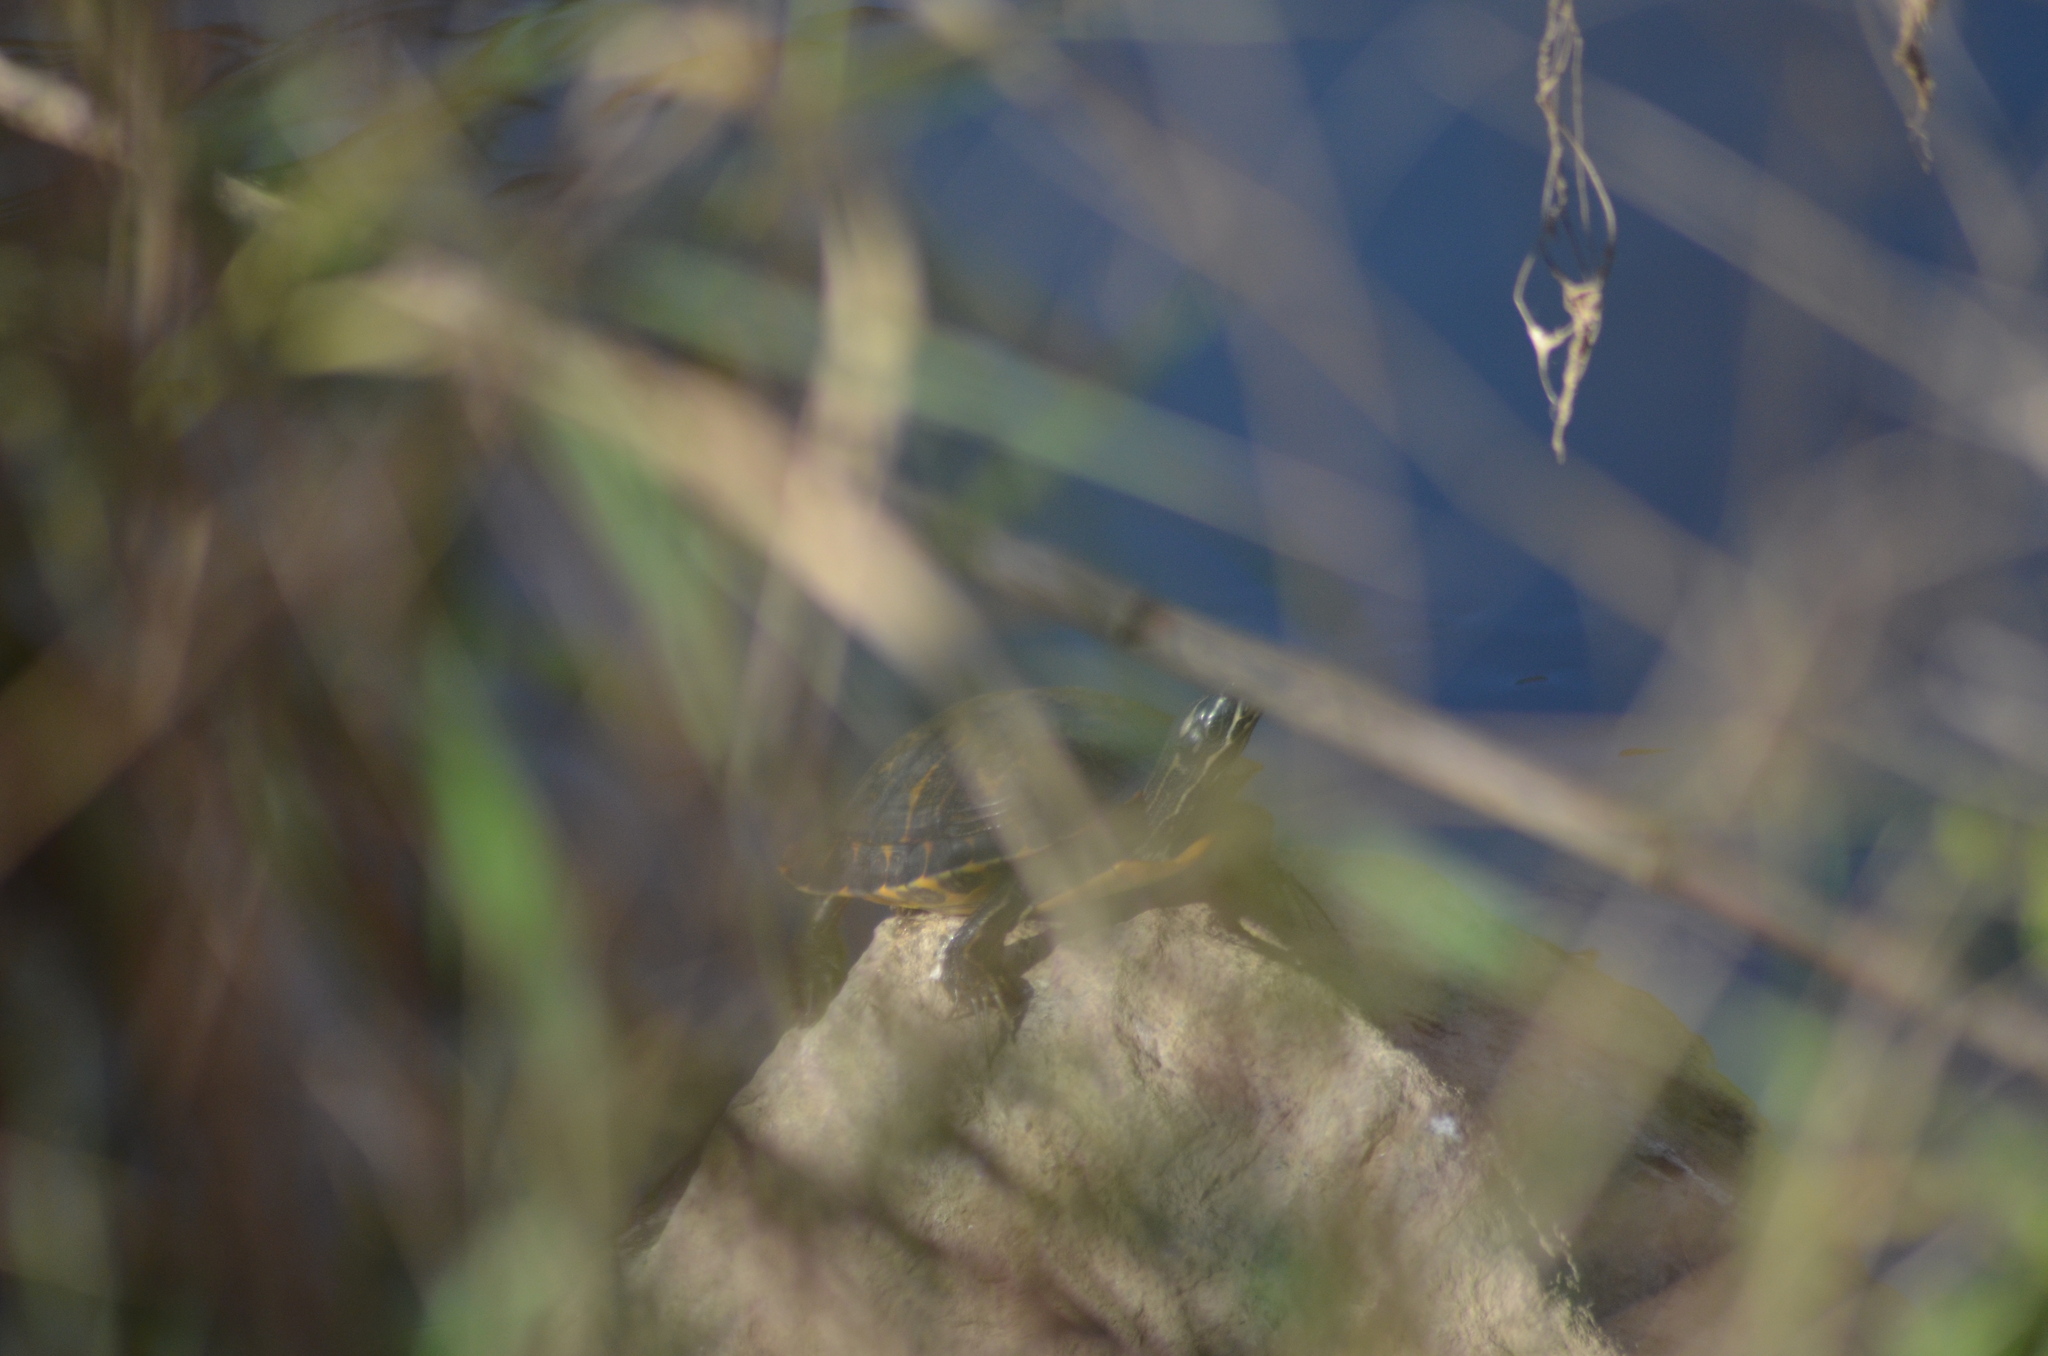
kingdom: Animalia
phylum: Chordata
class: Testudines
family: Emydidae
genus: Pseudemys
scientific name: Pseudemys concinna
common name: Eastern river cooter
